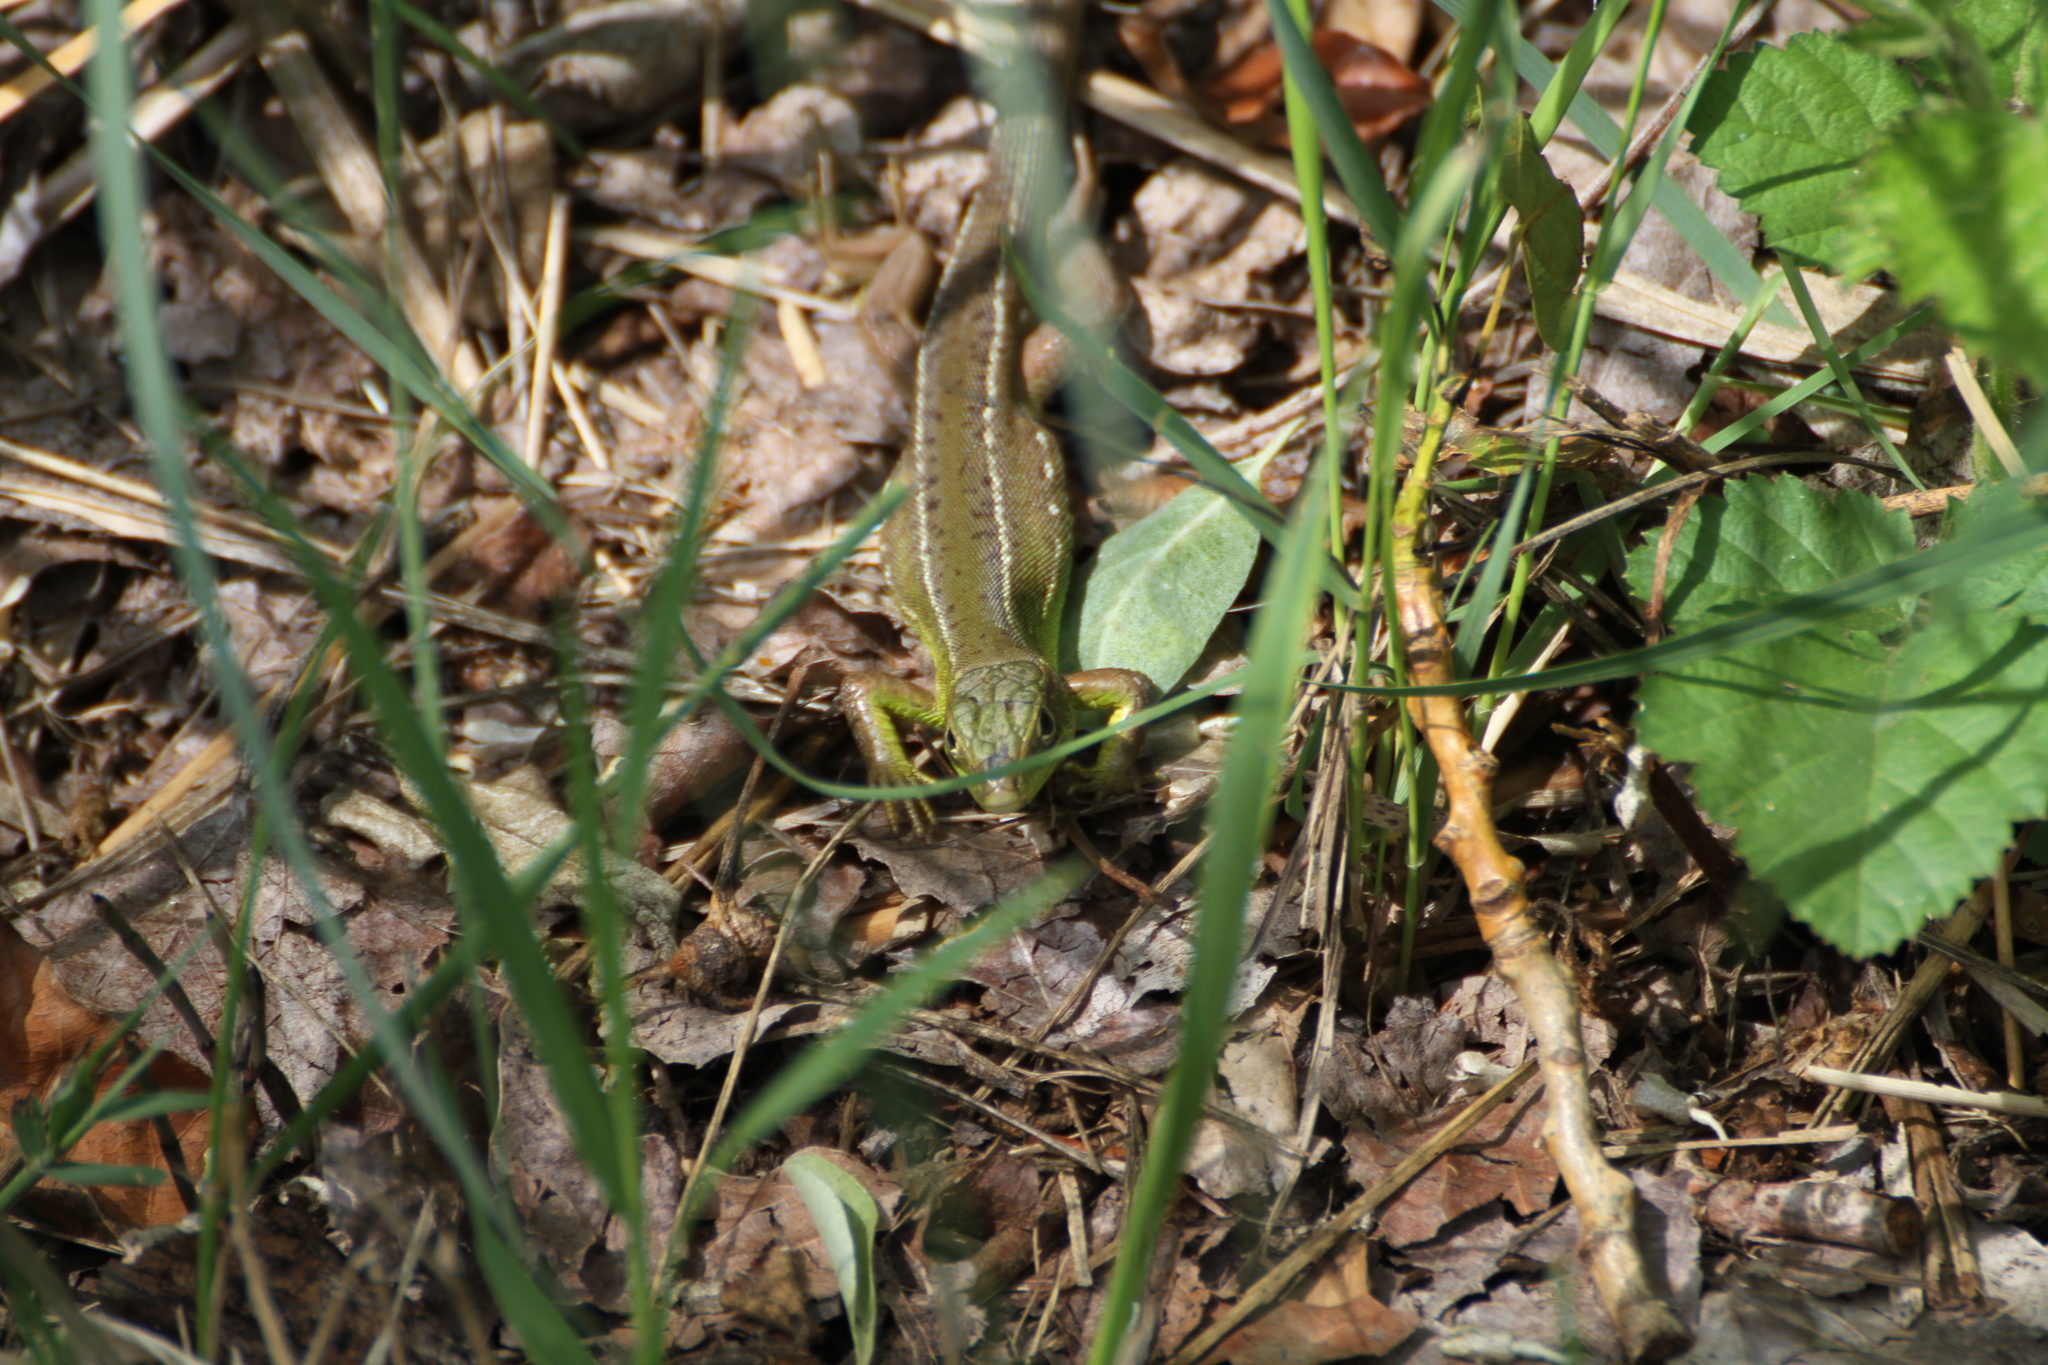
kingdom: Animalia
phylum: Chordata
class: Squamata
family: Lacertidae
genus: Lacerta
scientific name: Lacerta bilineata
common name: Western green lizard
